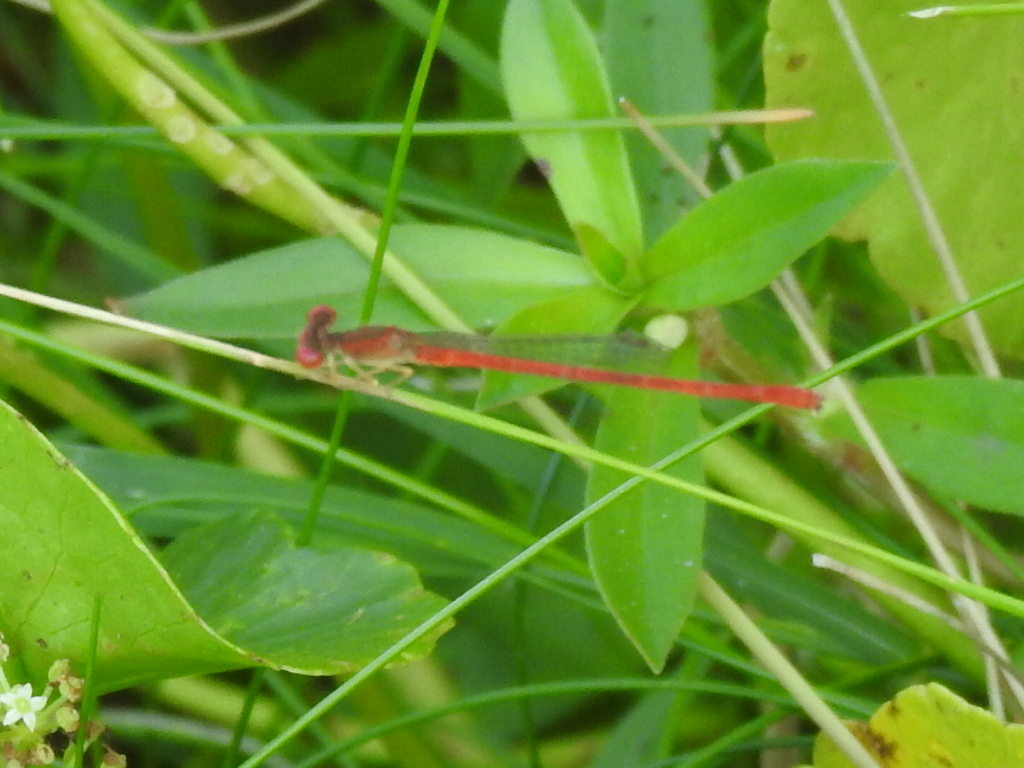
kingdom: Animalia
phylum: Arthropoda
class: Insecta
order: Odonata
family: Coenagrionidae
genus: Telebasis
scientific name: Telebasis salva
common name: Desert firetail
